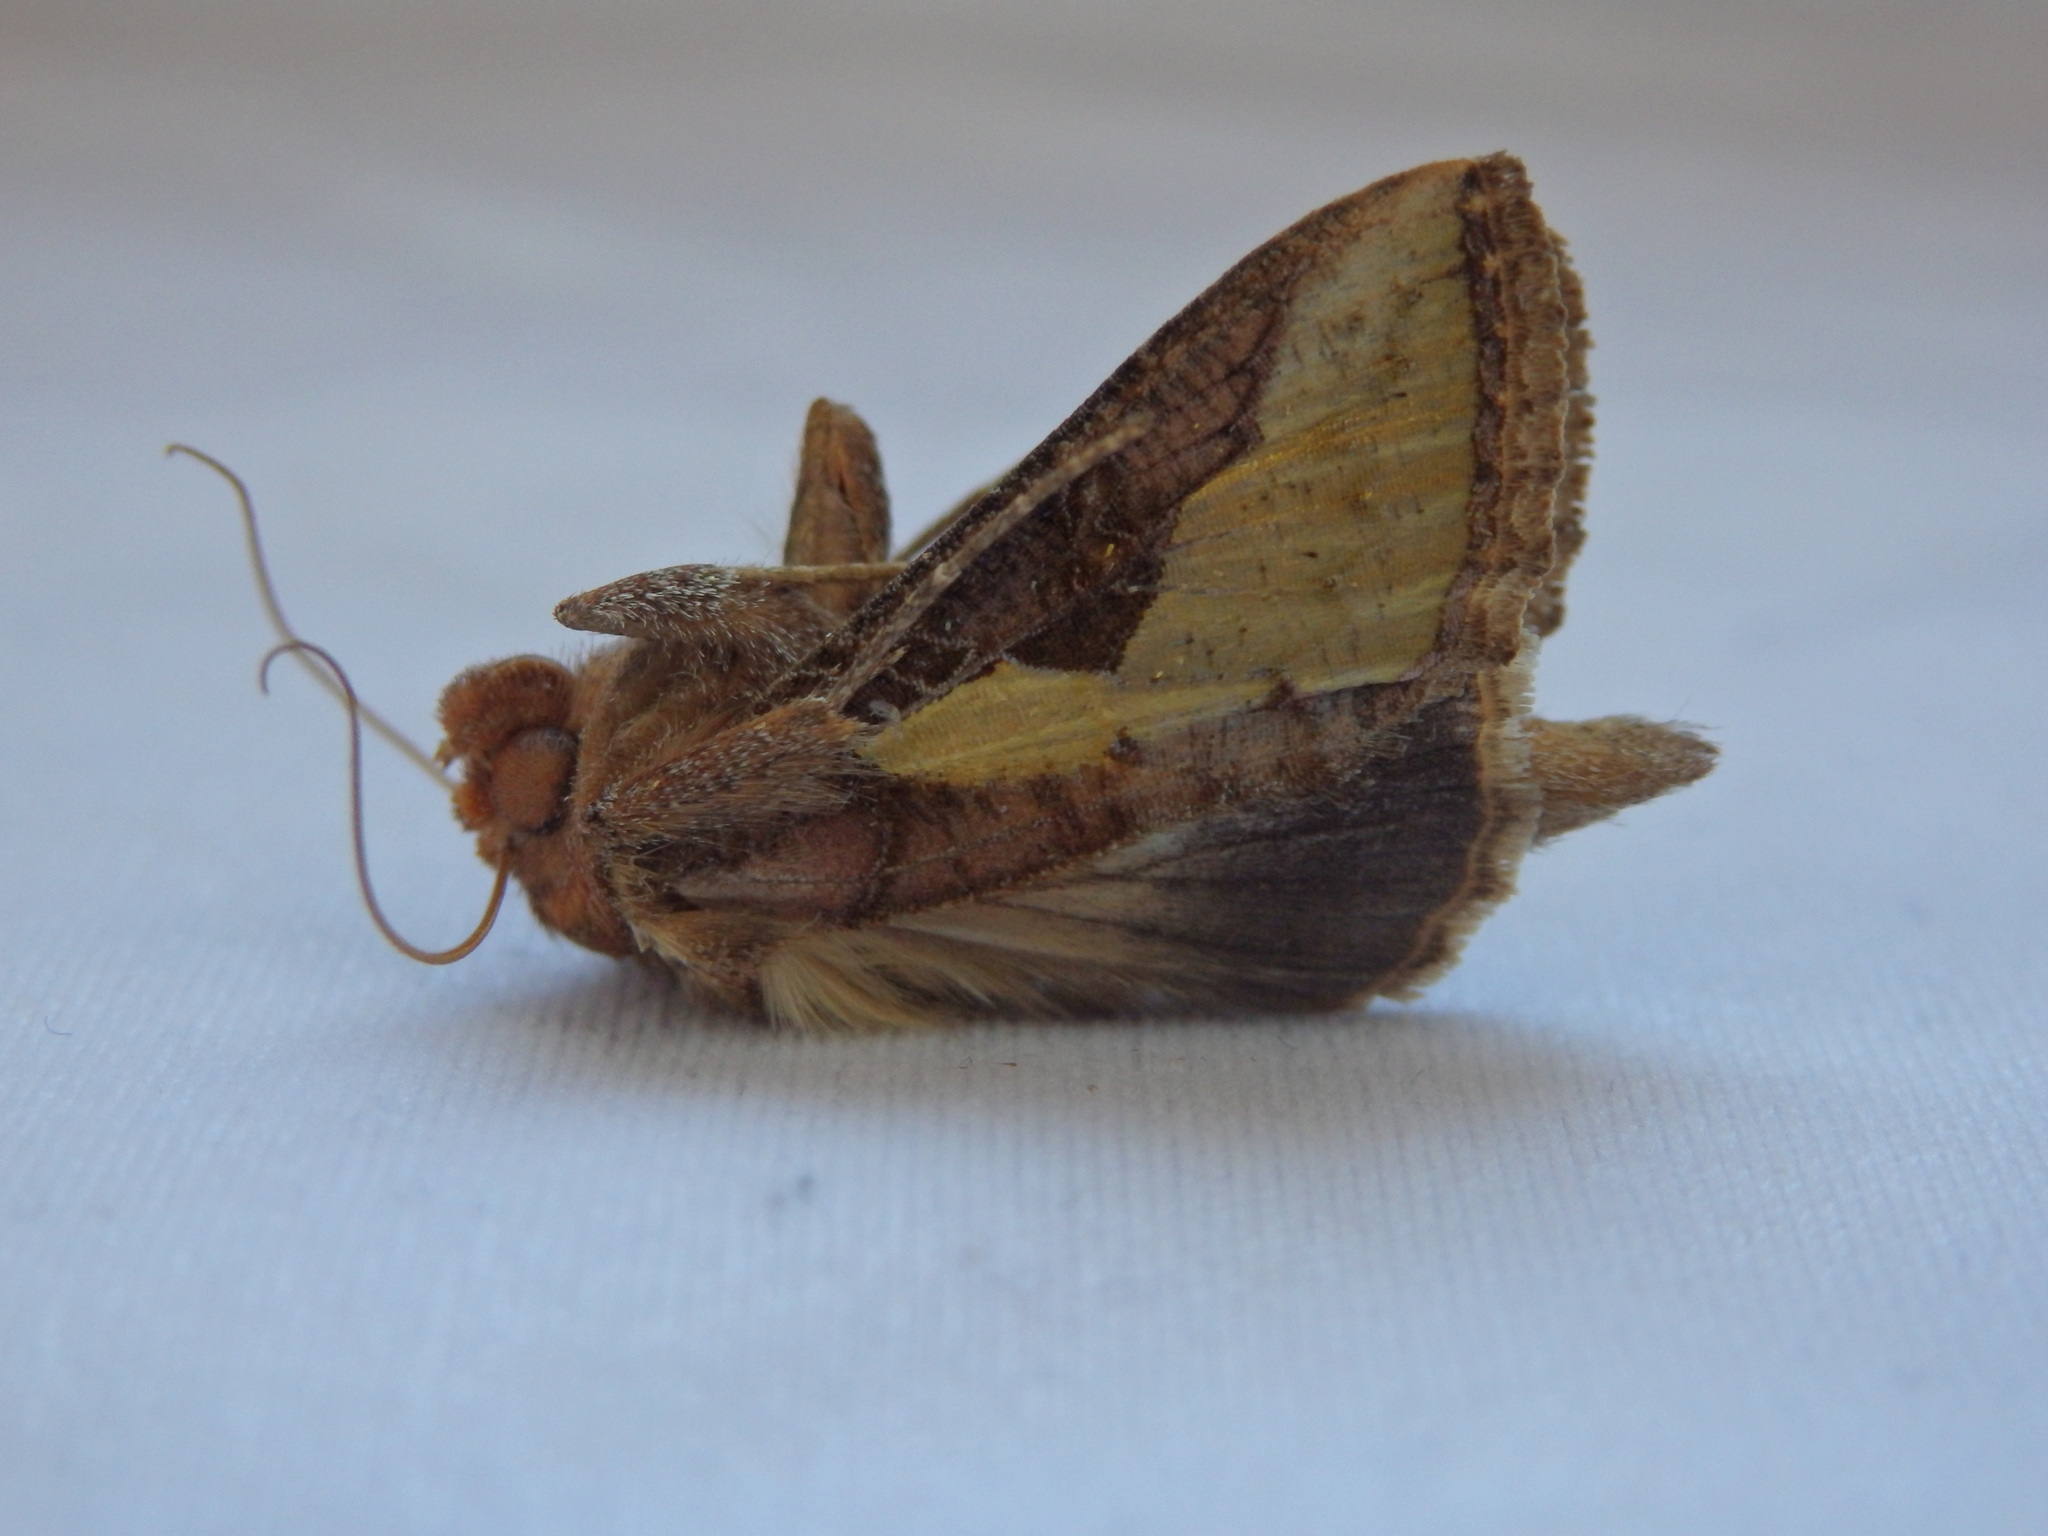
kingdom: Animalia
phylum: Arthropoda
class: Insecta
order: Lepidoptera
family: Noctuidae
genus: Thysanoplusia
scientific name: Thysanoplusia orichalcea
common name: Slender burnished brass, golden plusia
